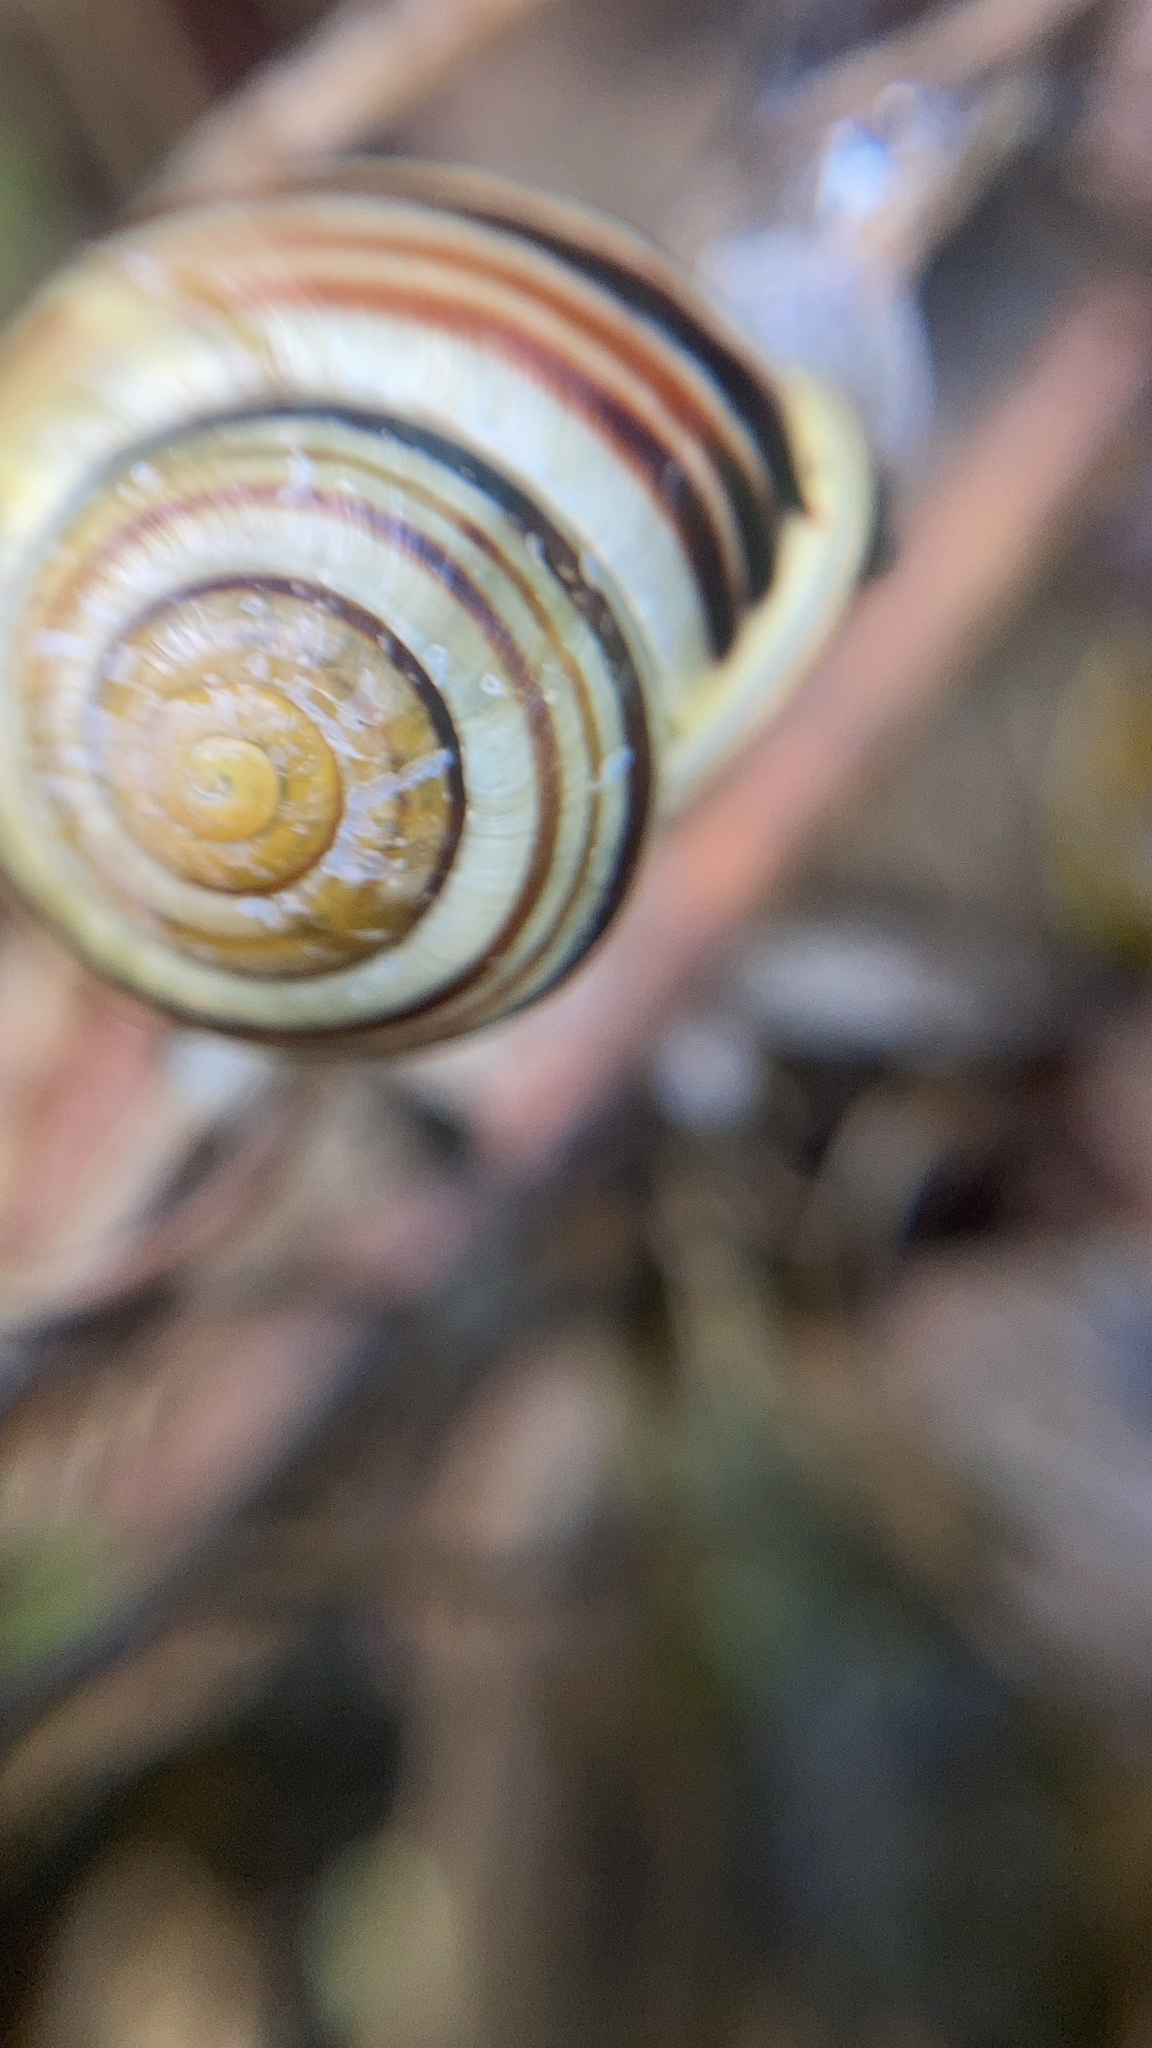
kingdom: Animalia
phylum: Mollusca
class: Gastropoda
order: Stylommatophora
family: Helicidae
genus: Cepaea
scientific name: Cepaea hortensis
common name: White-lip gardensnail
